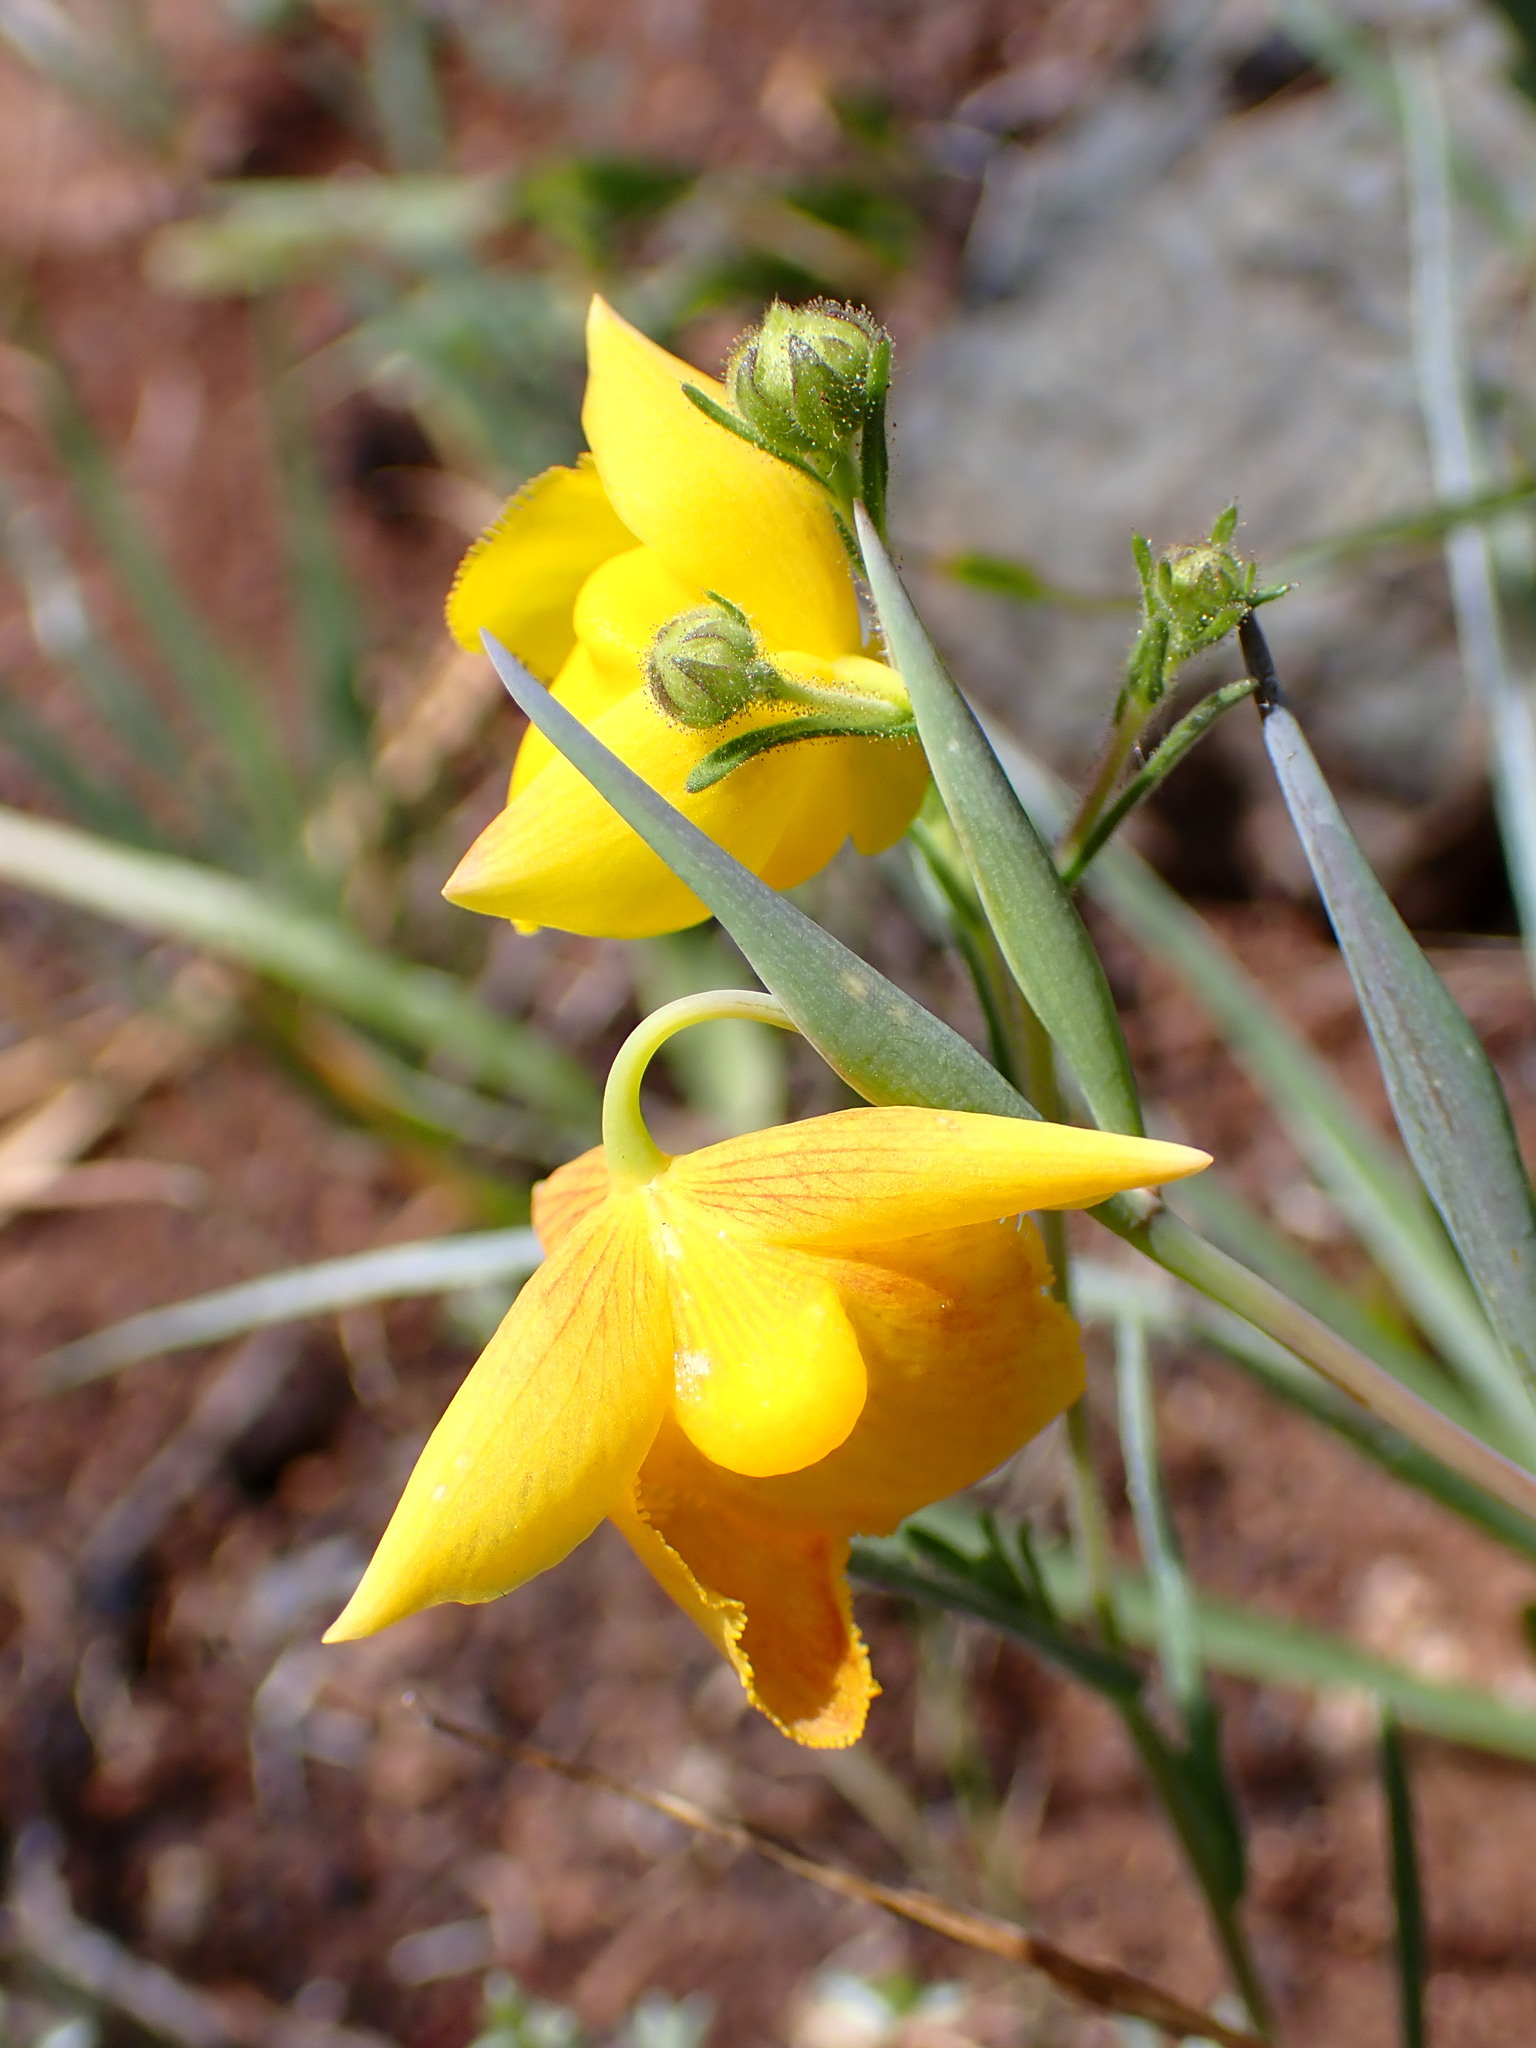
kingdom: Plantae
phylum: Tracheophyta
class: Liliopsida
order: Liliales
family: Liliaceae
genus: Calochortus
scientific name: Calochortus amabilis
